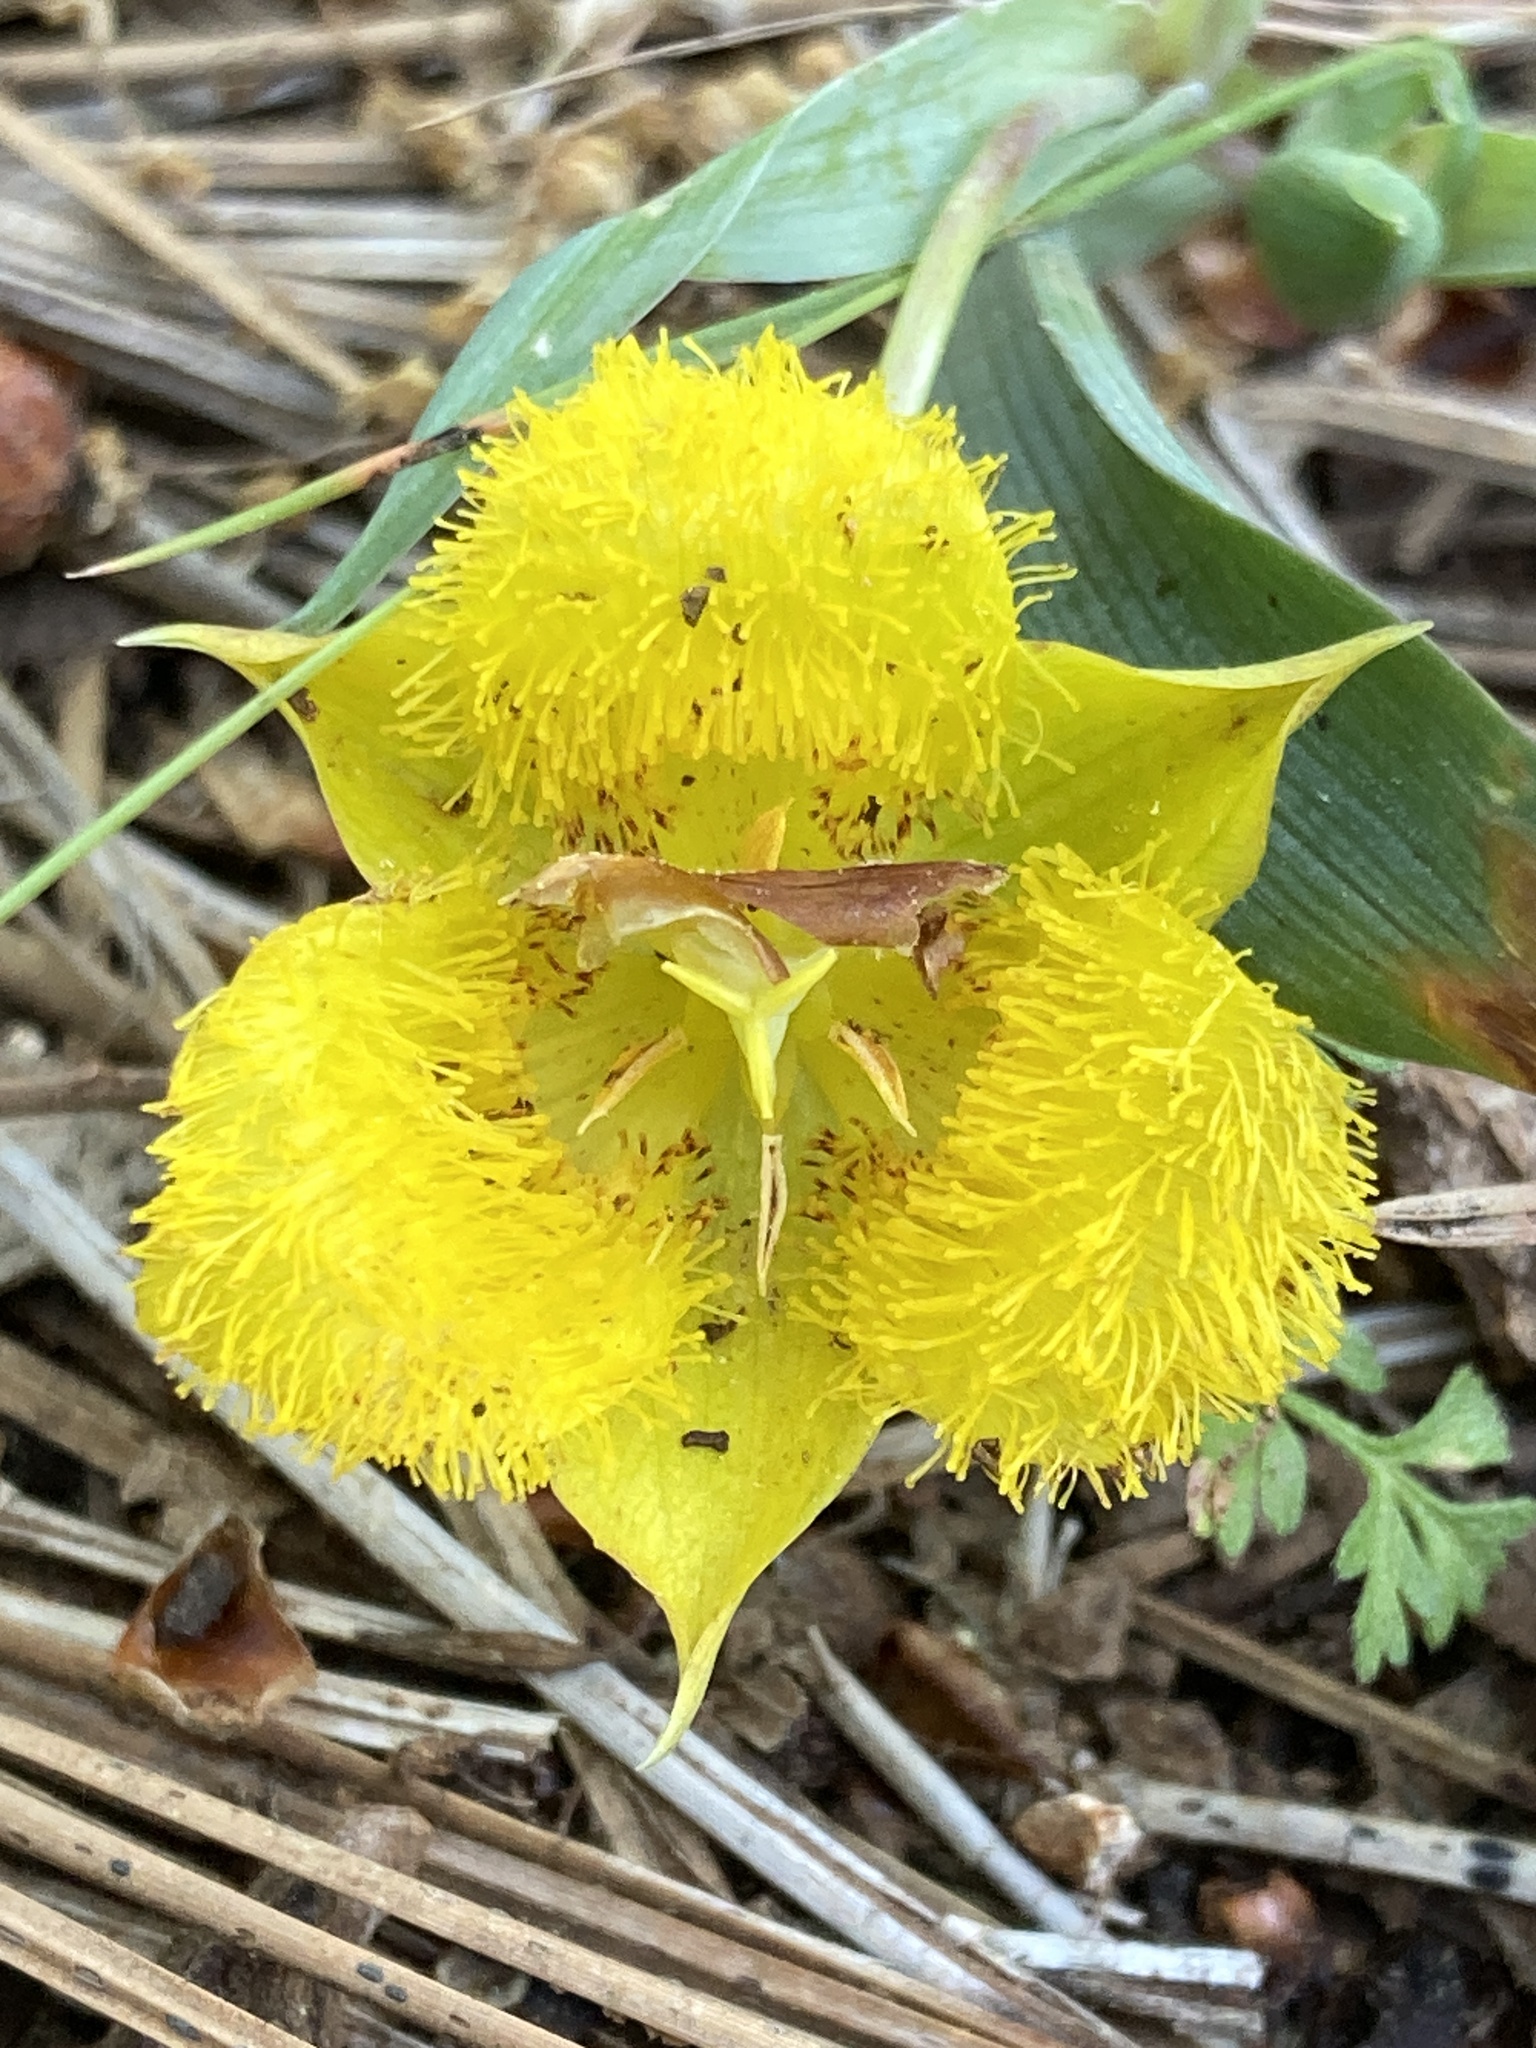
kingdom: Plantae
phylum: Tracheophyta
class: Liliopsida
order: Liliales
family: Liliaceae
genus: Calochortus
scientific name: Calochortus monophyllus
